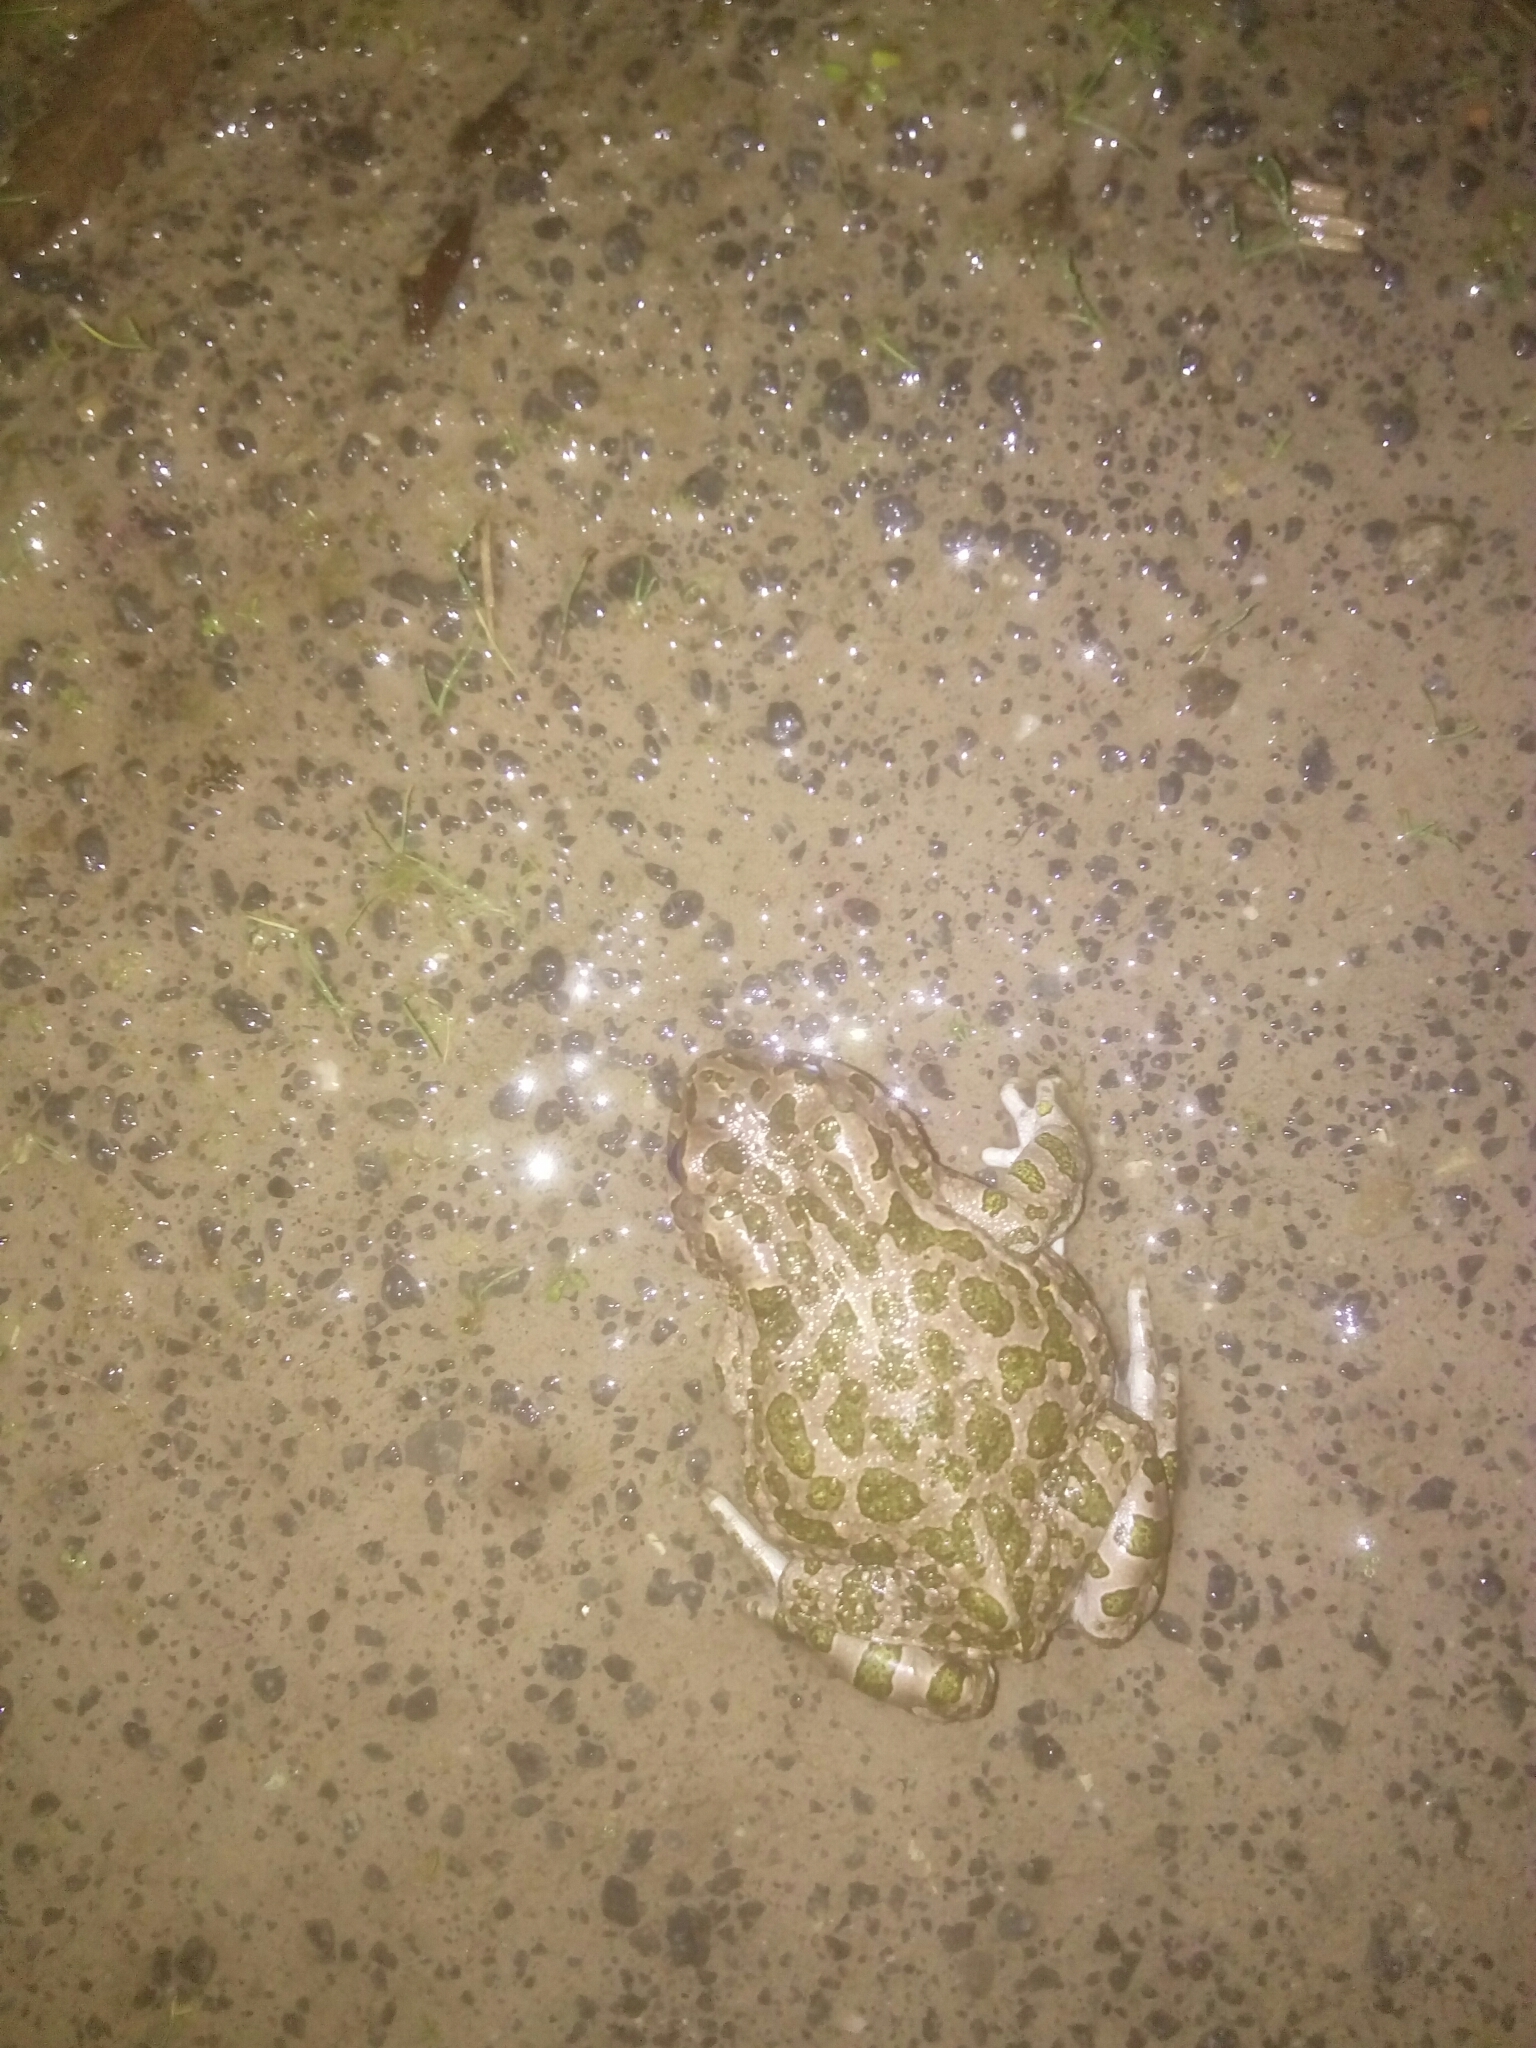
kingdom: Animalia
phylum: Chordata
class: Amphibia
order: Anura
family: Bufonidae
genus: Bufotes
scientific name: Bufotes viridis
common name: European green toad
